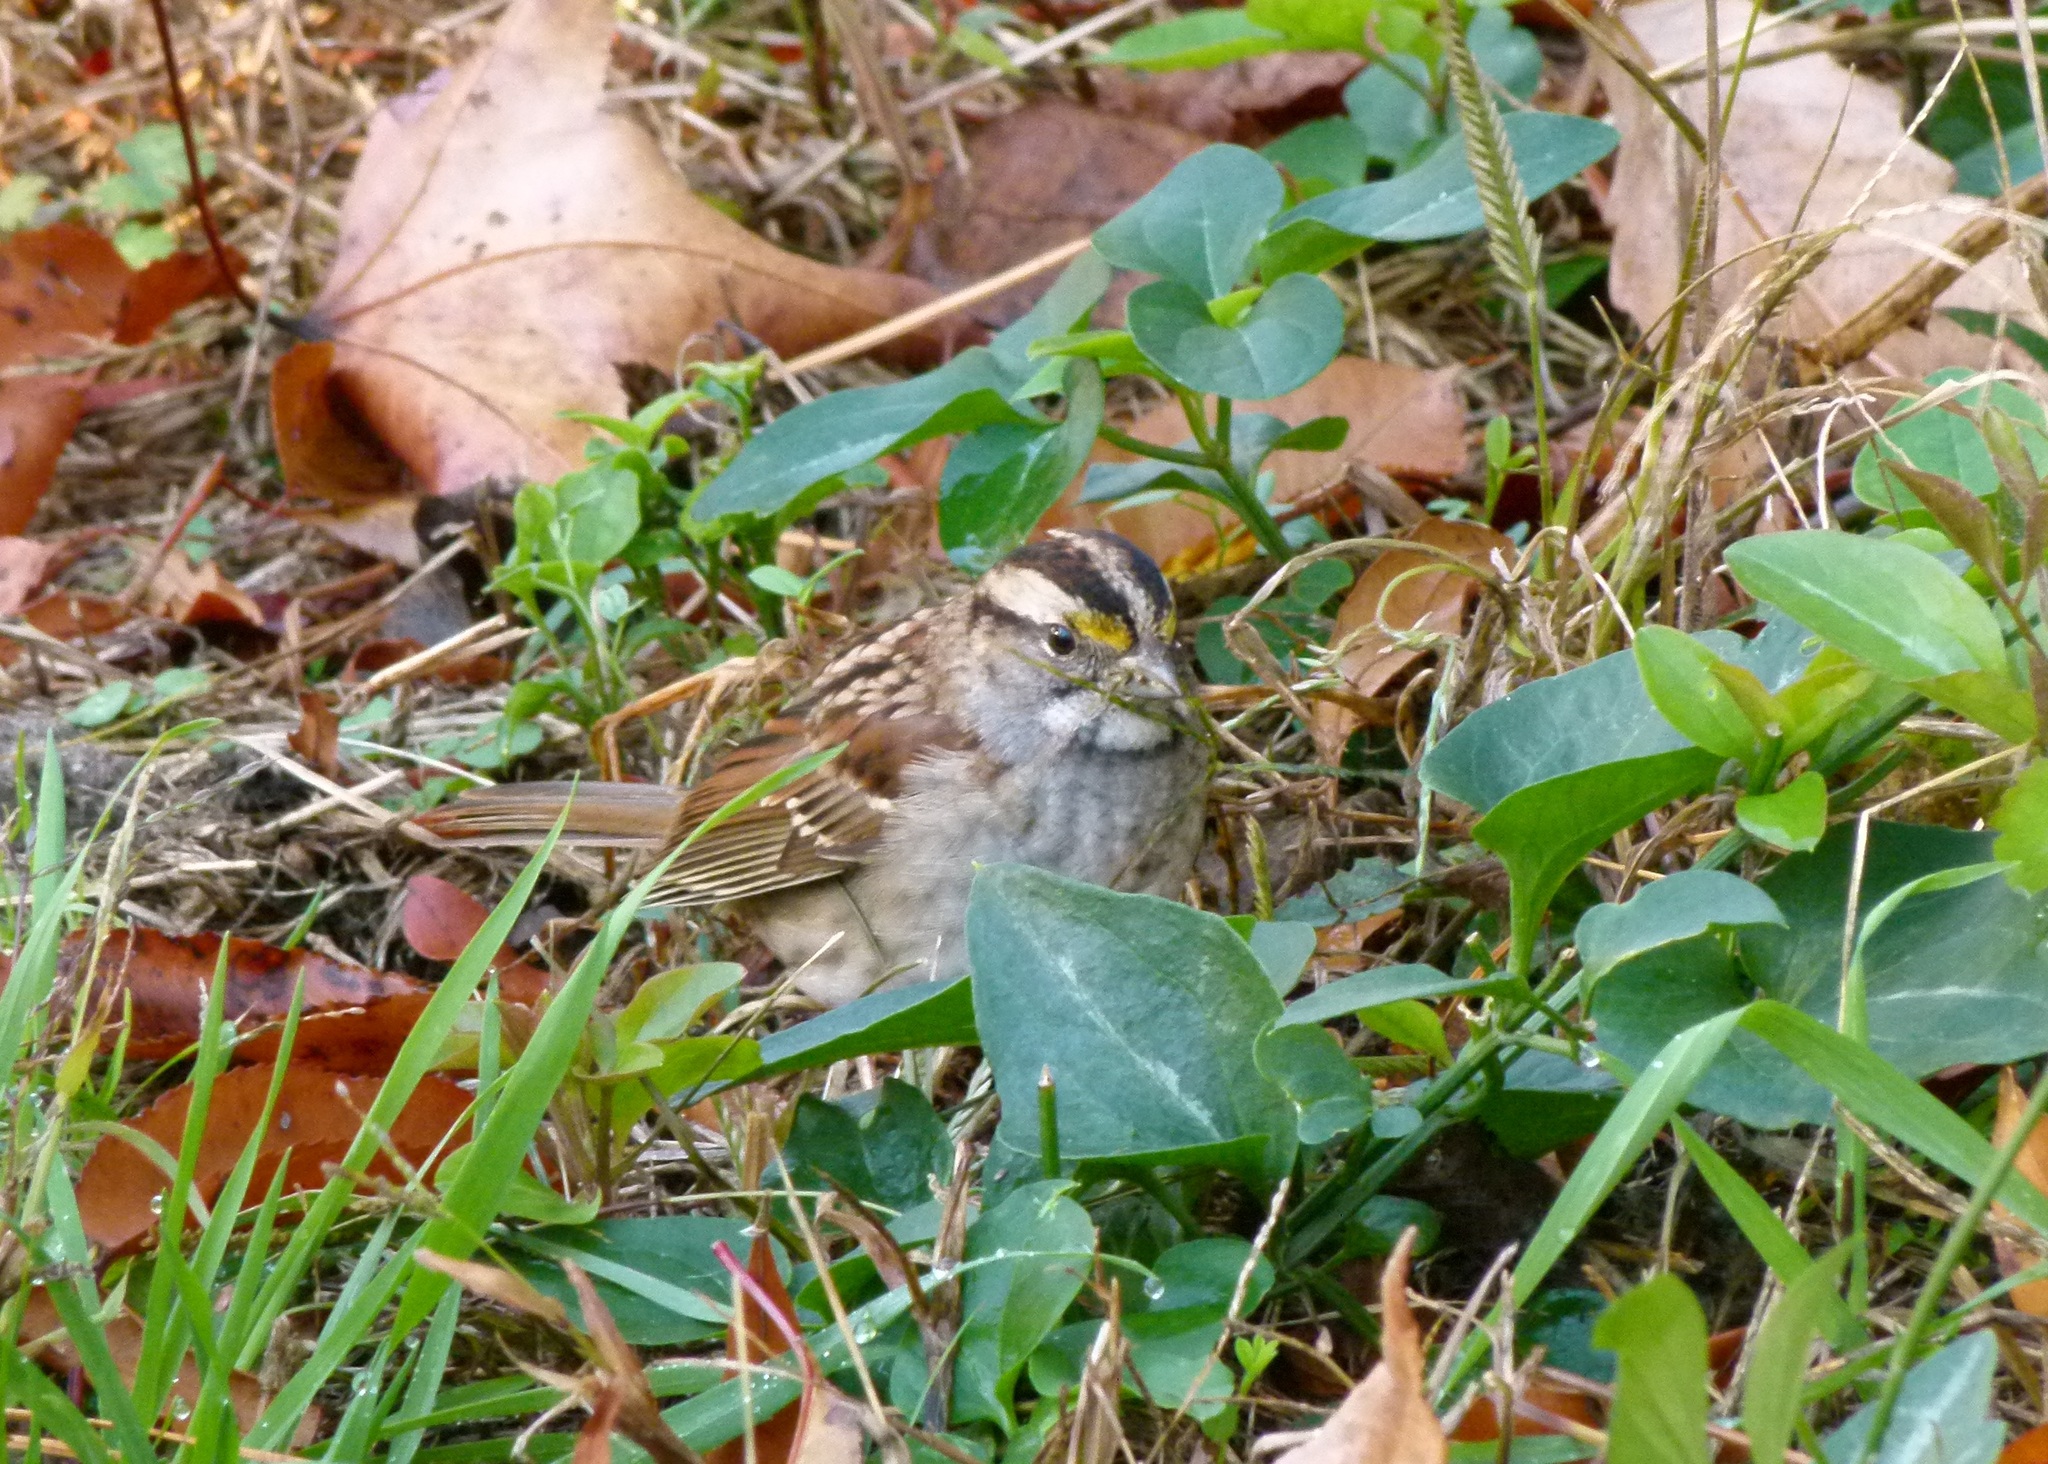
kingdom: Animalia
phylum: Chordata
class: Aves
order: Passeriformes
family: Passerellidae
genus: Zonotrichia
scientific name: Zonotrichia albicollis
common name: White-throated sparrow
